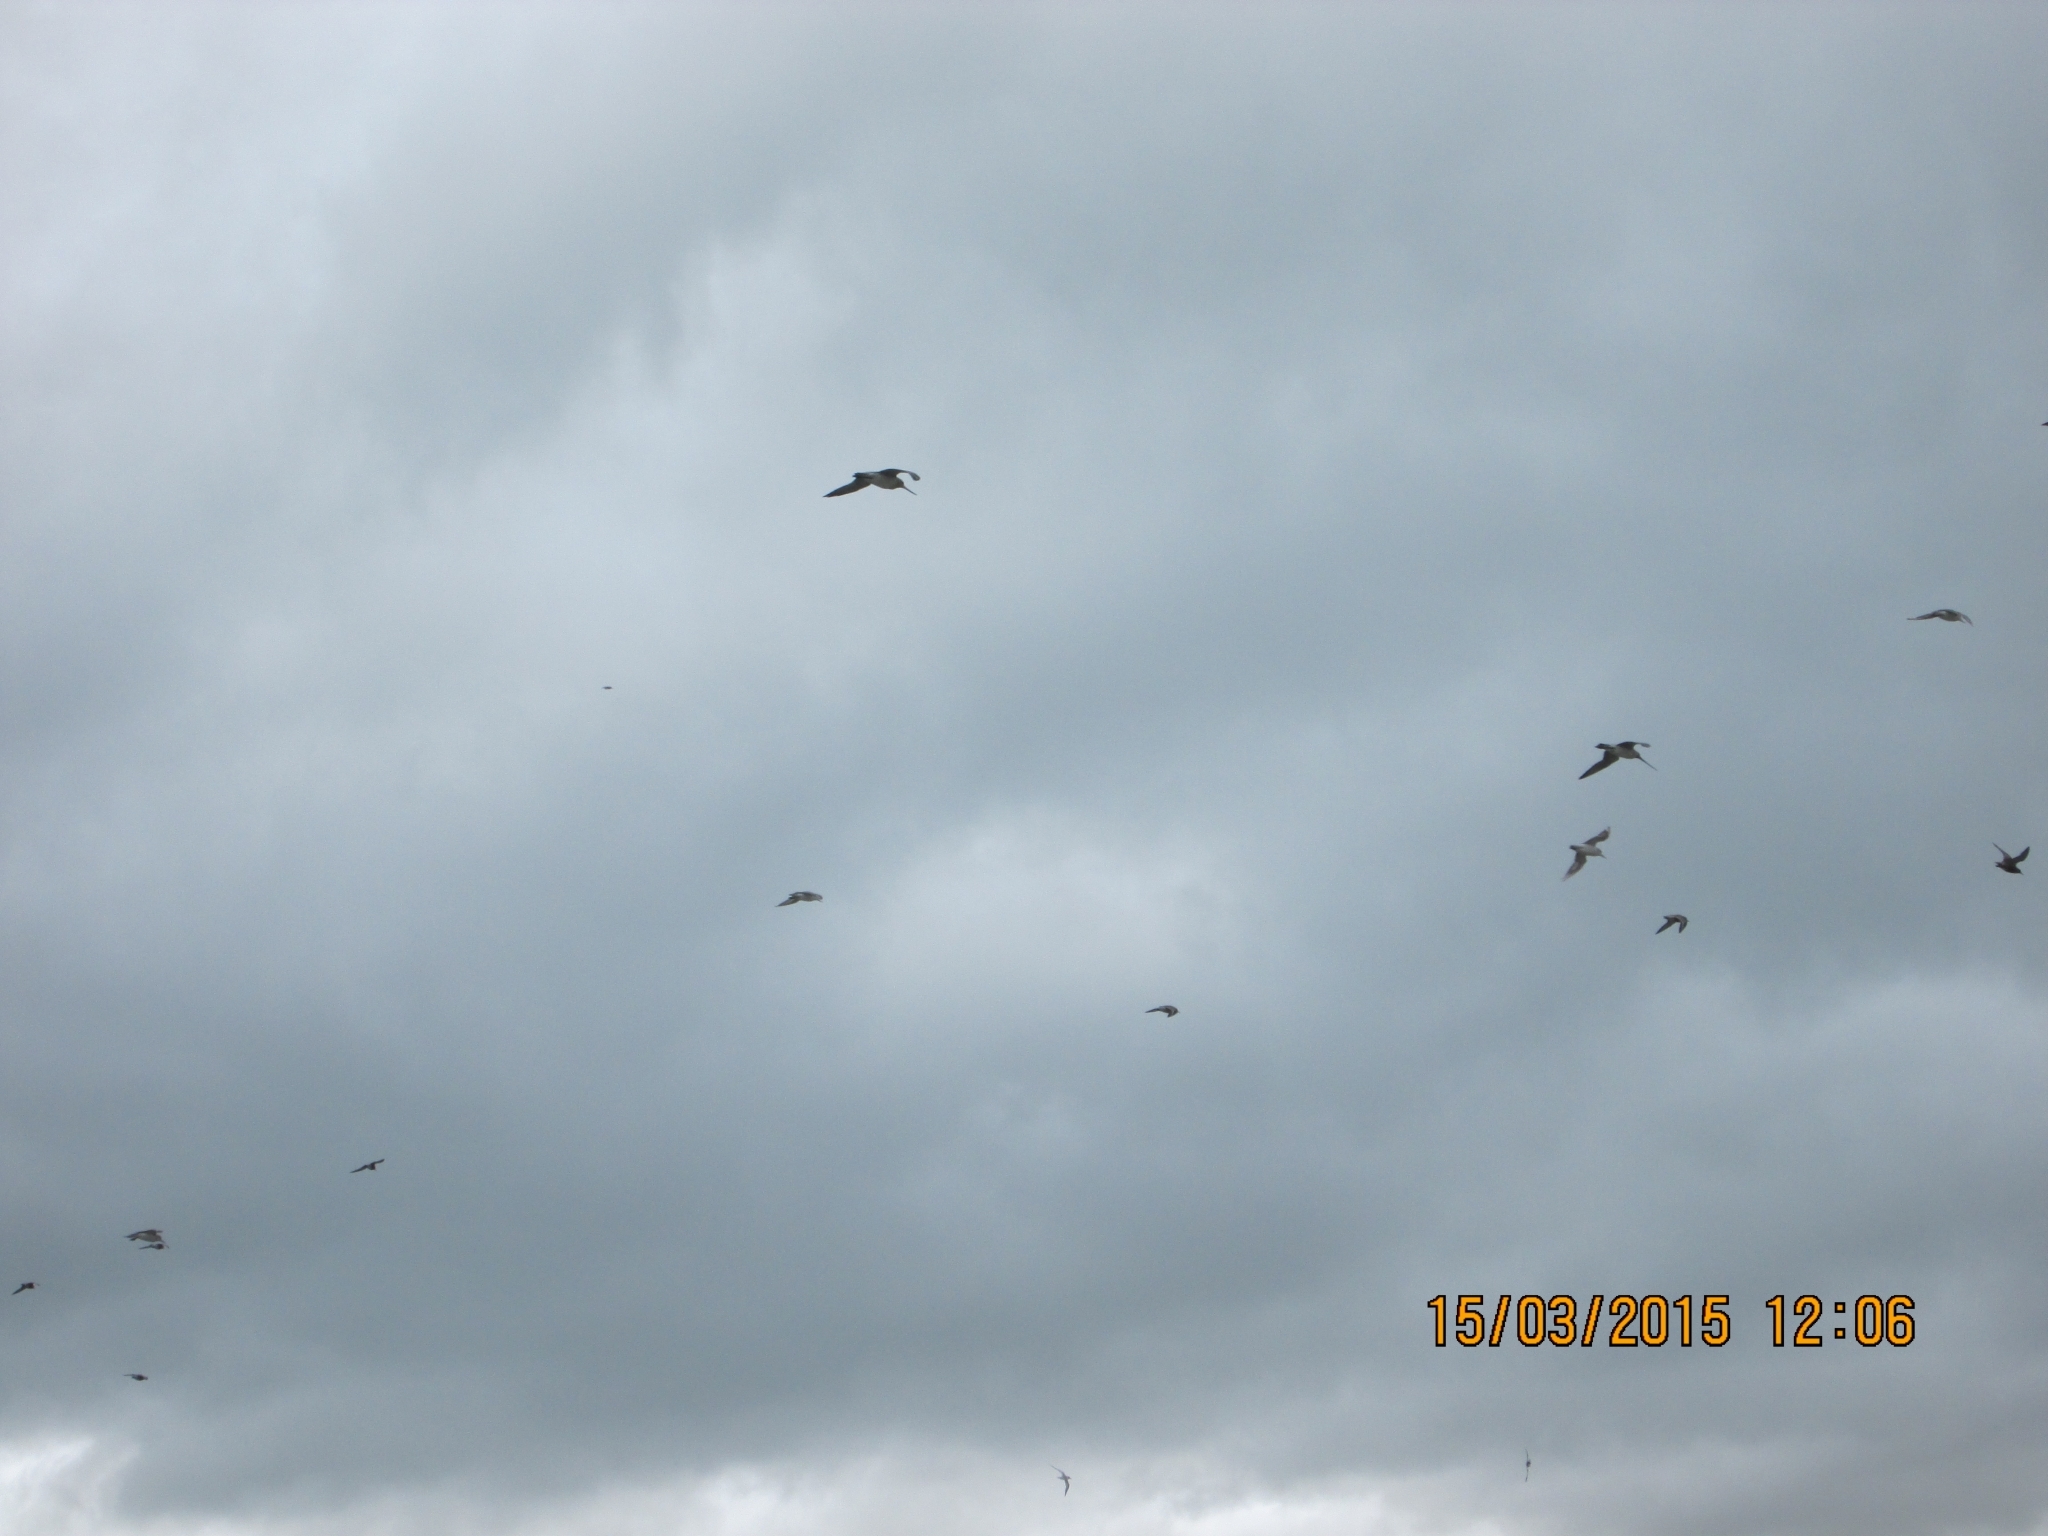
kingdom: Animalia
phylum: Chordata
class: Aves
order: Charadriiformes
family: Scolopacidae
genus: Limosa
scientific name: Limosa lapponica
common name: Bar-tailed godwit
